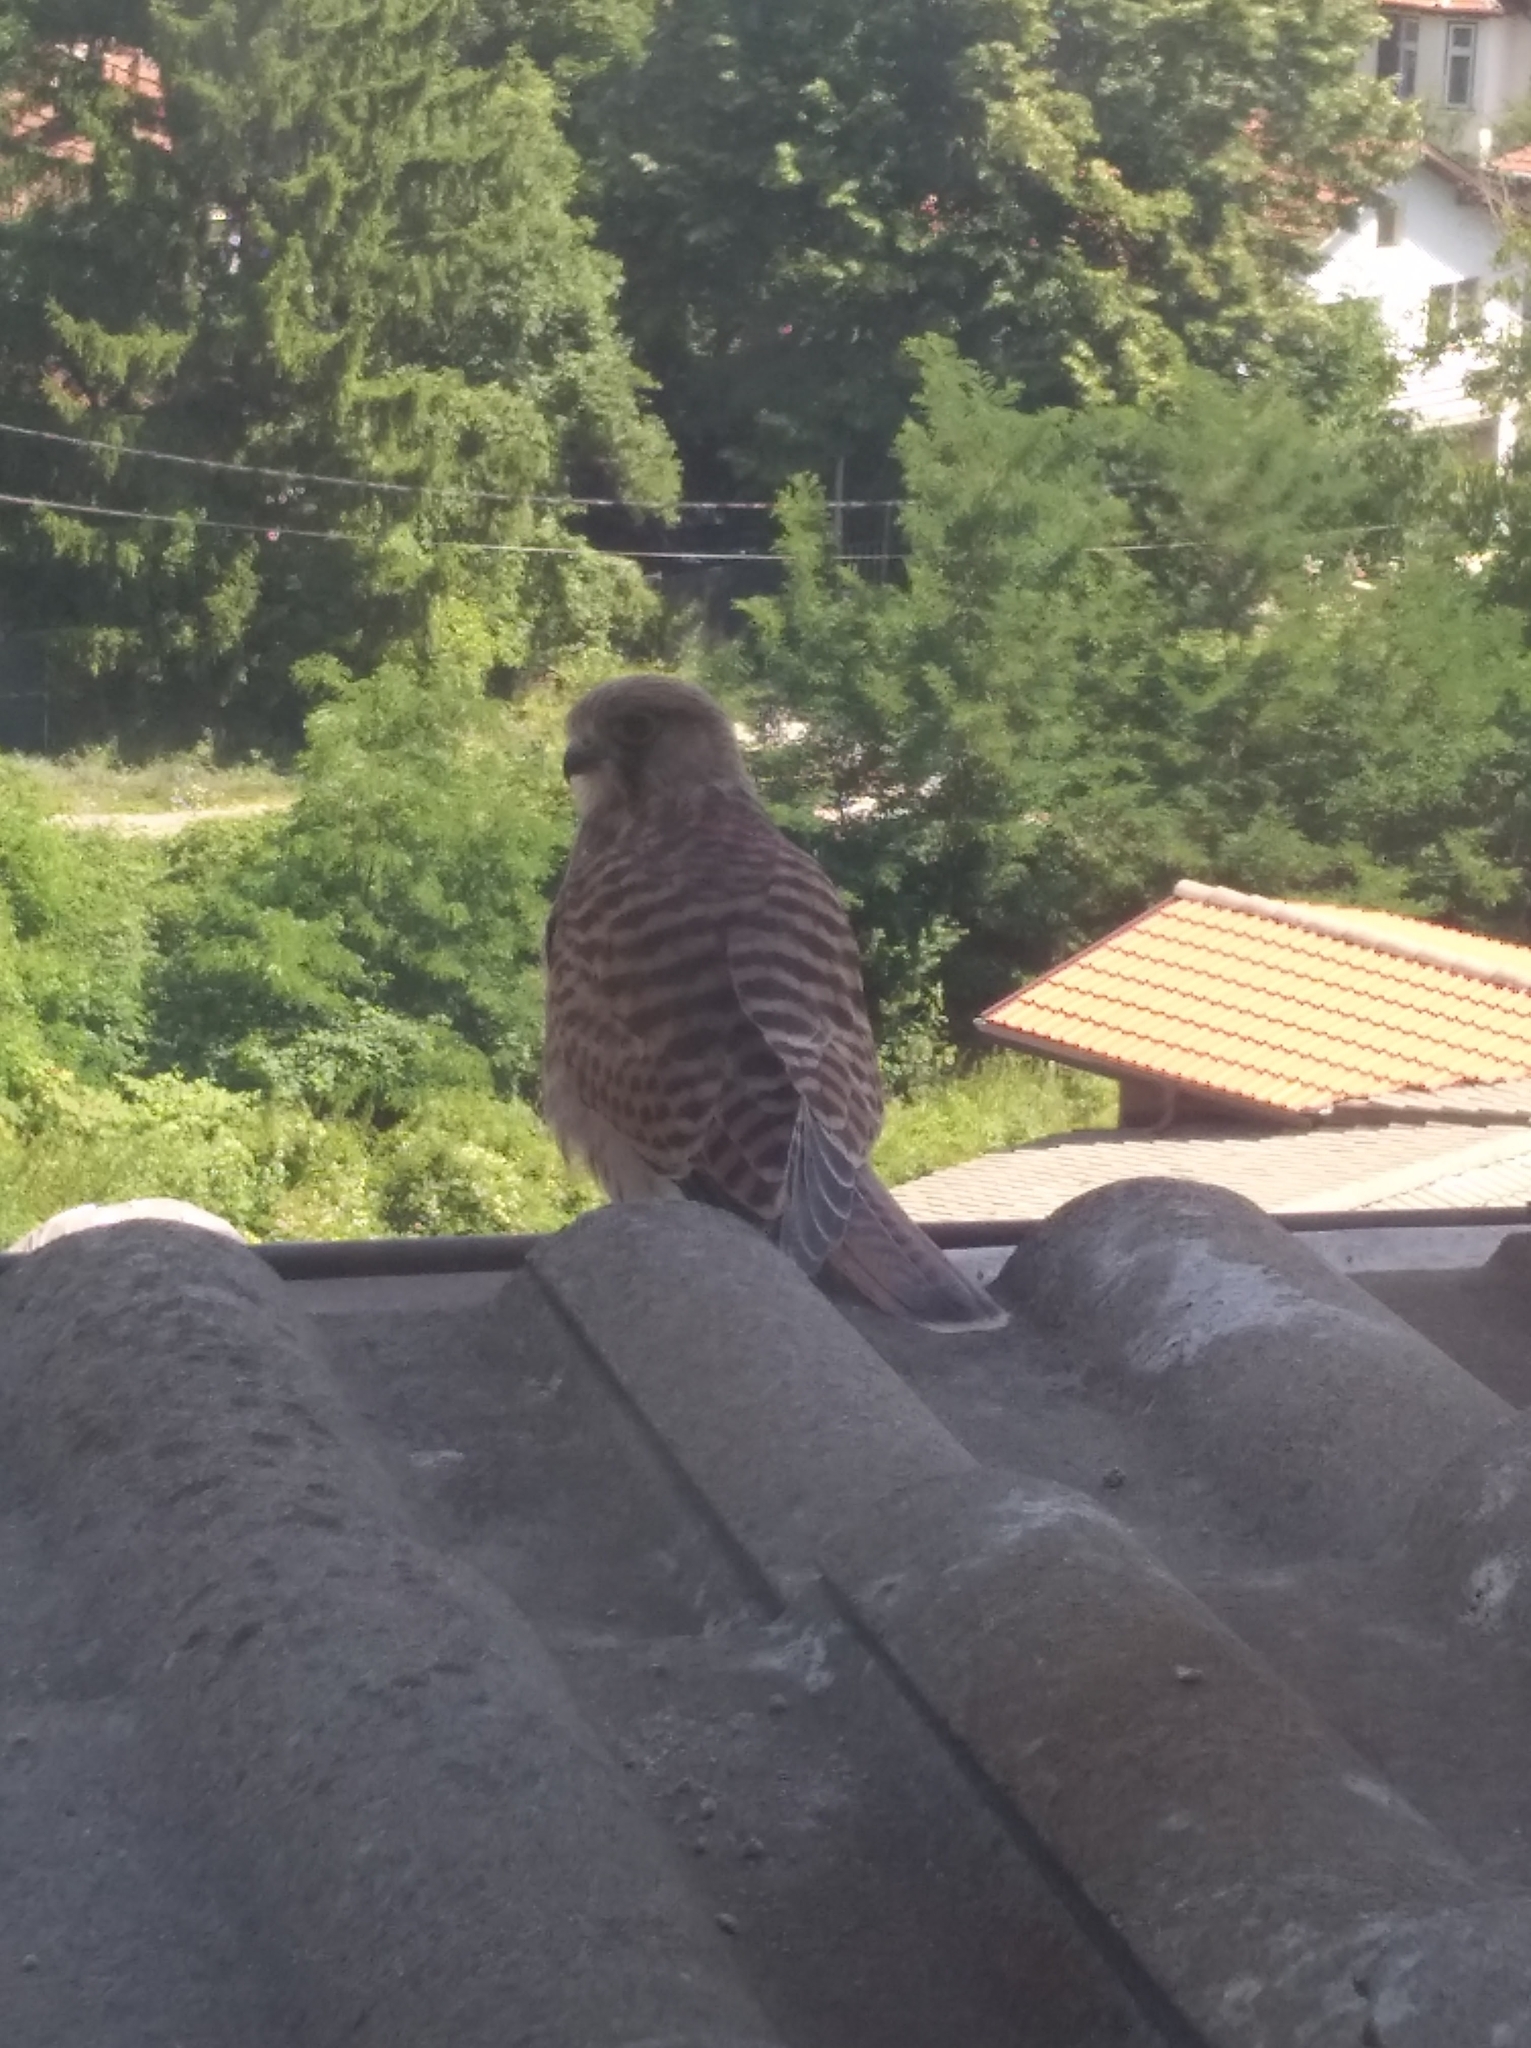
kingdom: Animalia
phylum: Chordata
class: Aves
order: Falconiformes
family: Falconidae
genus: Falco
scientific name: Falco tinnunculus
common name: Common kestrel
